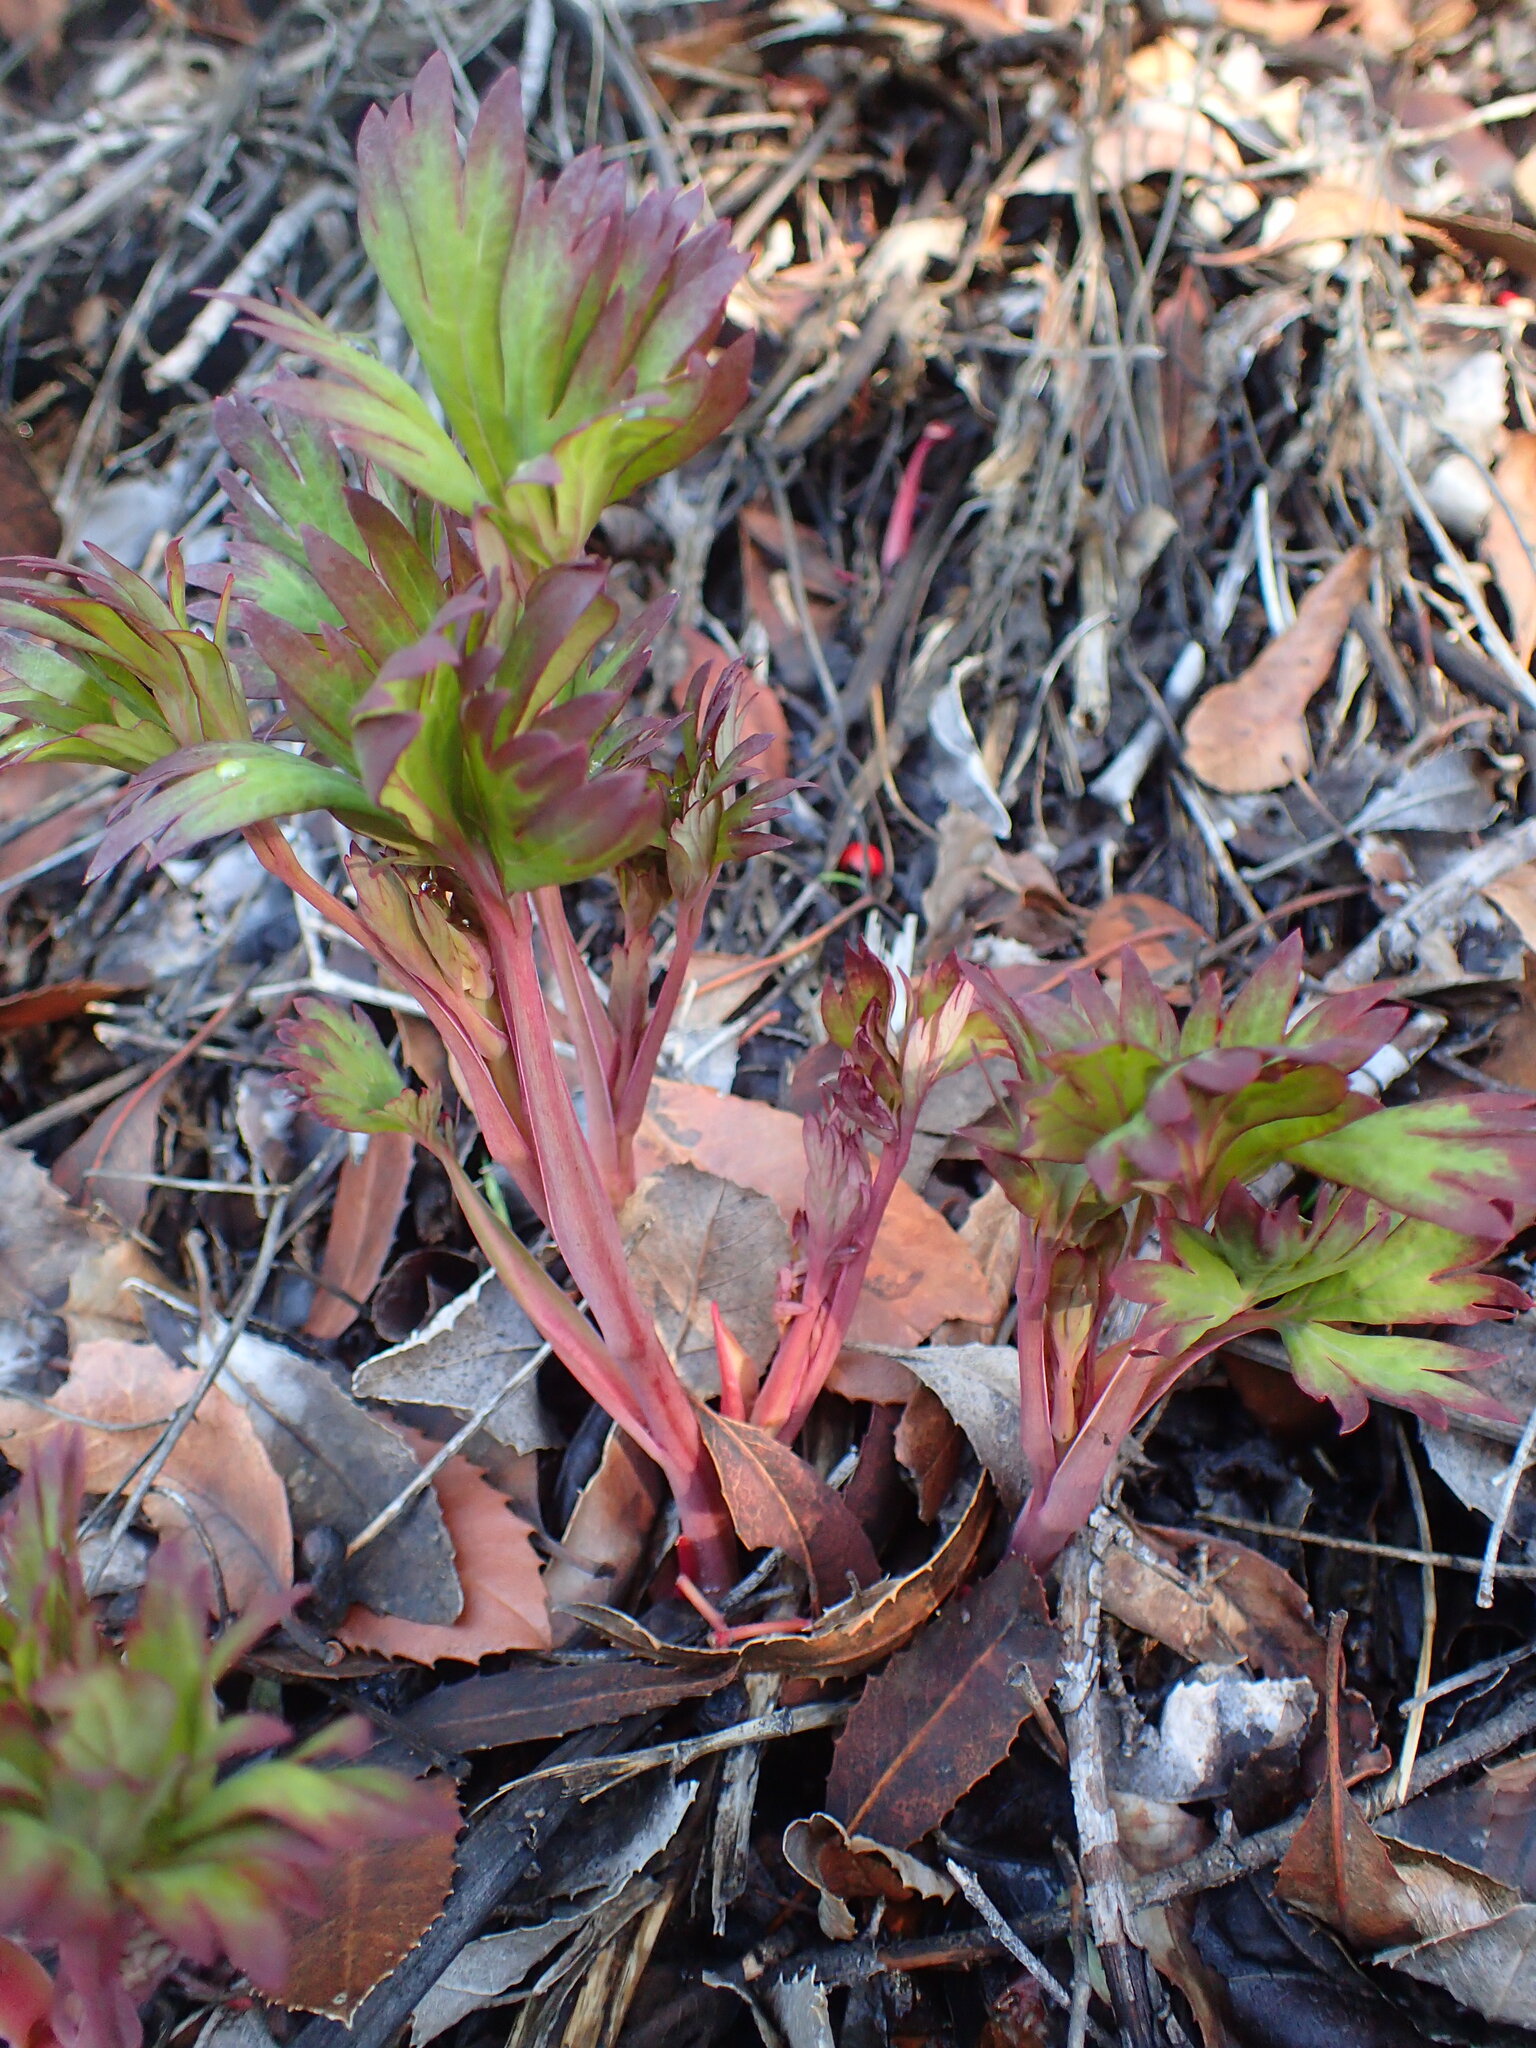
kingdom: Plantae
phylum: Tracheophyta
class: Magnoliopsida
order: Saxifragales
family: Paeoniaceae
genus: Paeonia
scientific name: Paeonia californica
